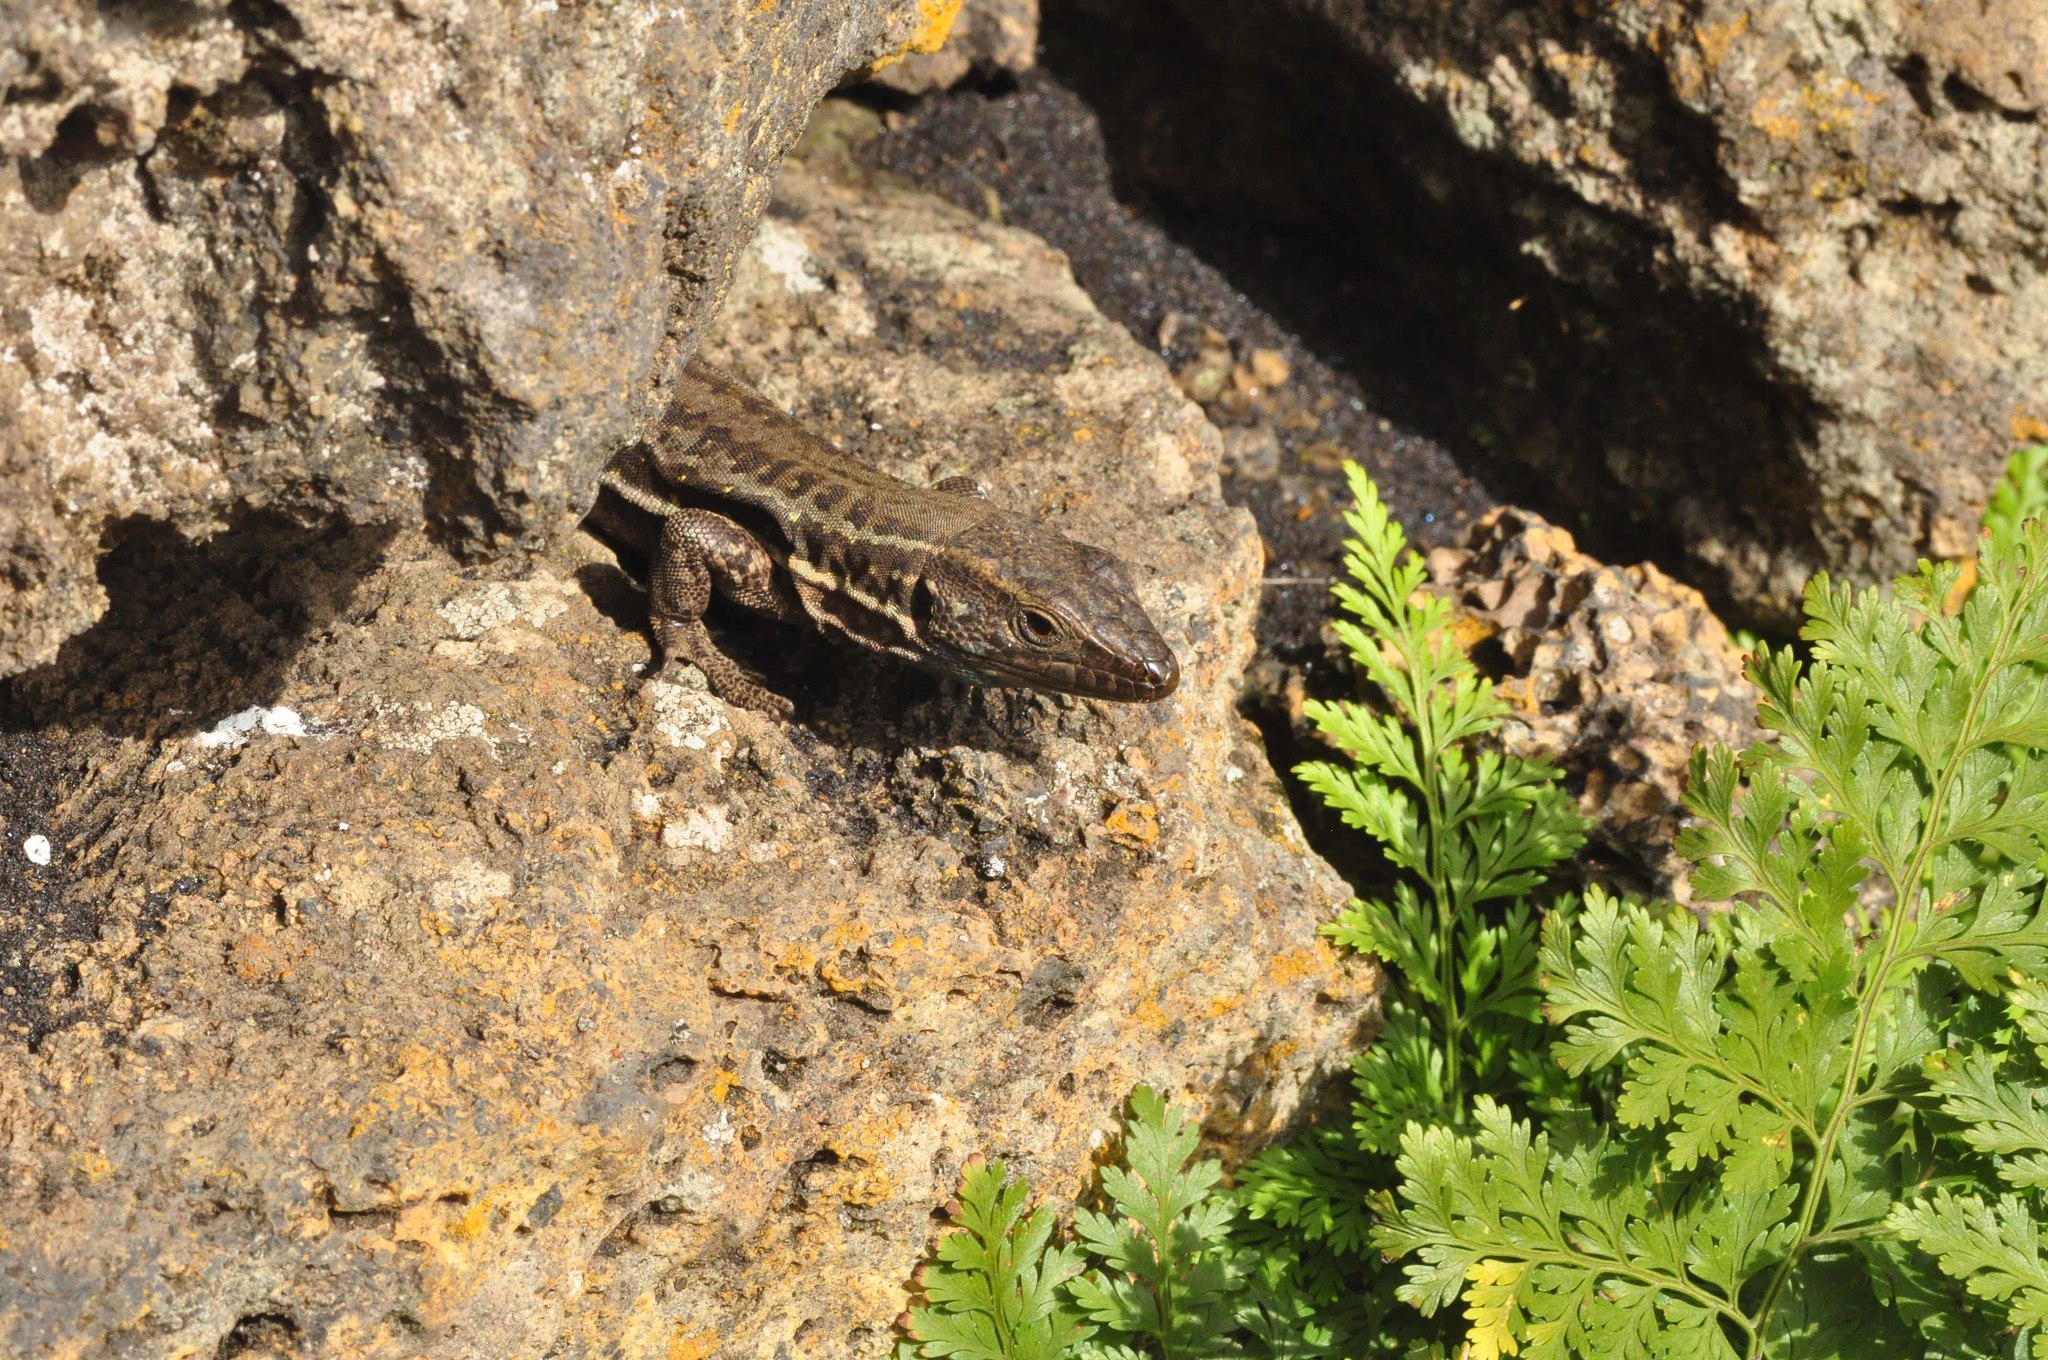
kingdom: Animalia
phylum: Chordata
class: Squamata
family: Lacertidae
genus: Gallotia
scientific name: Gallotia galloti
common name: Gallot's lizard
